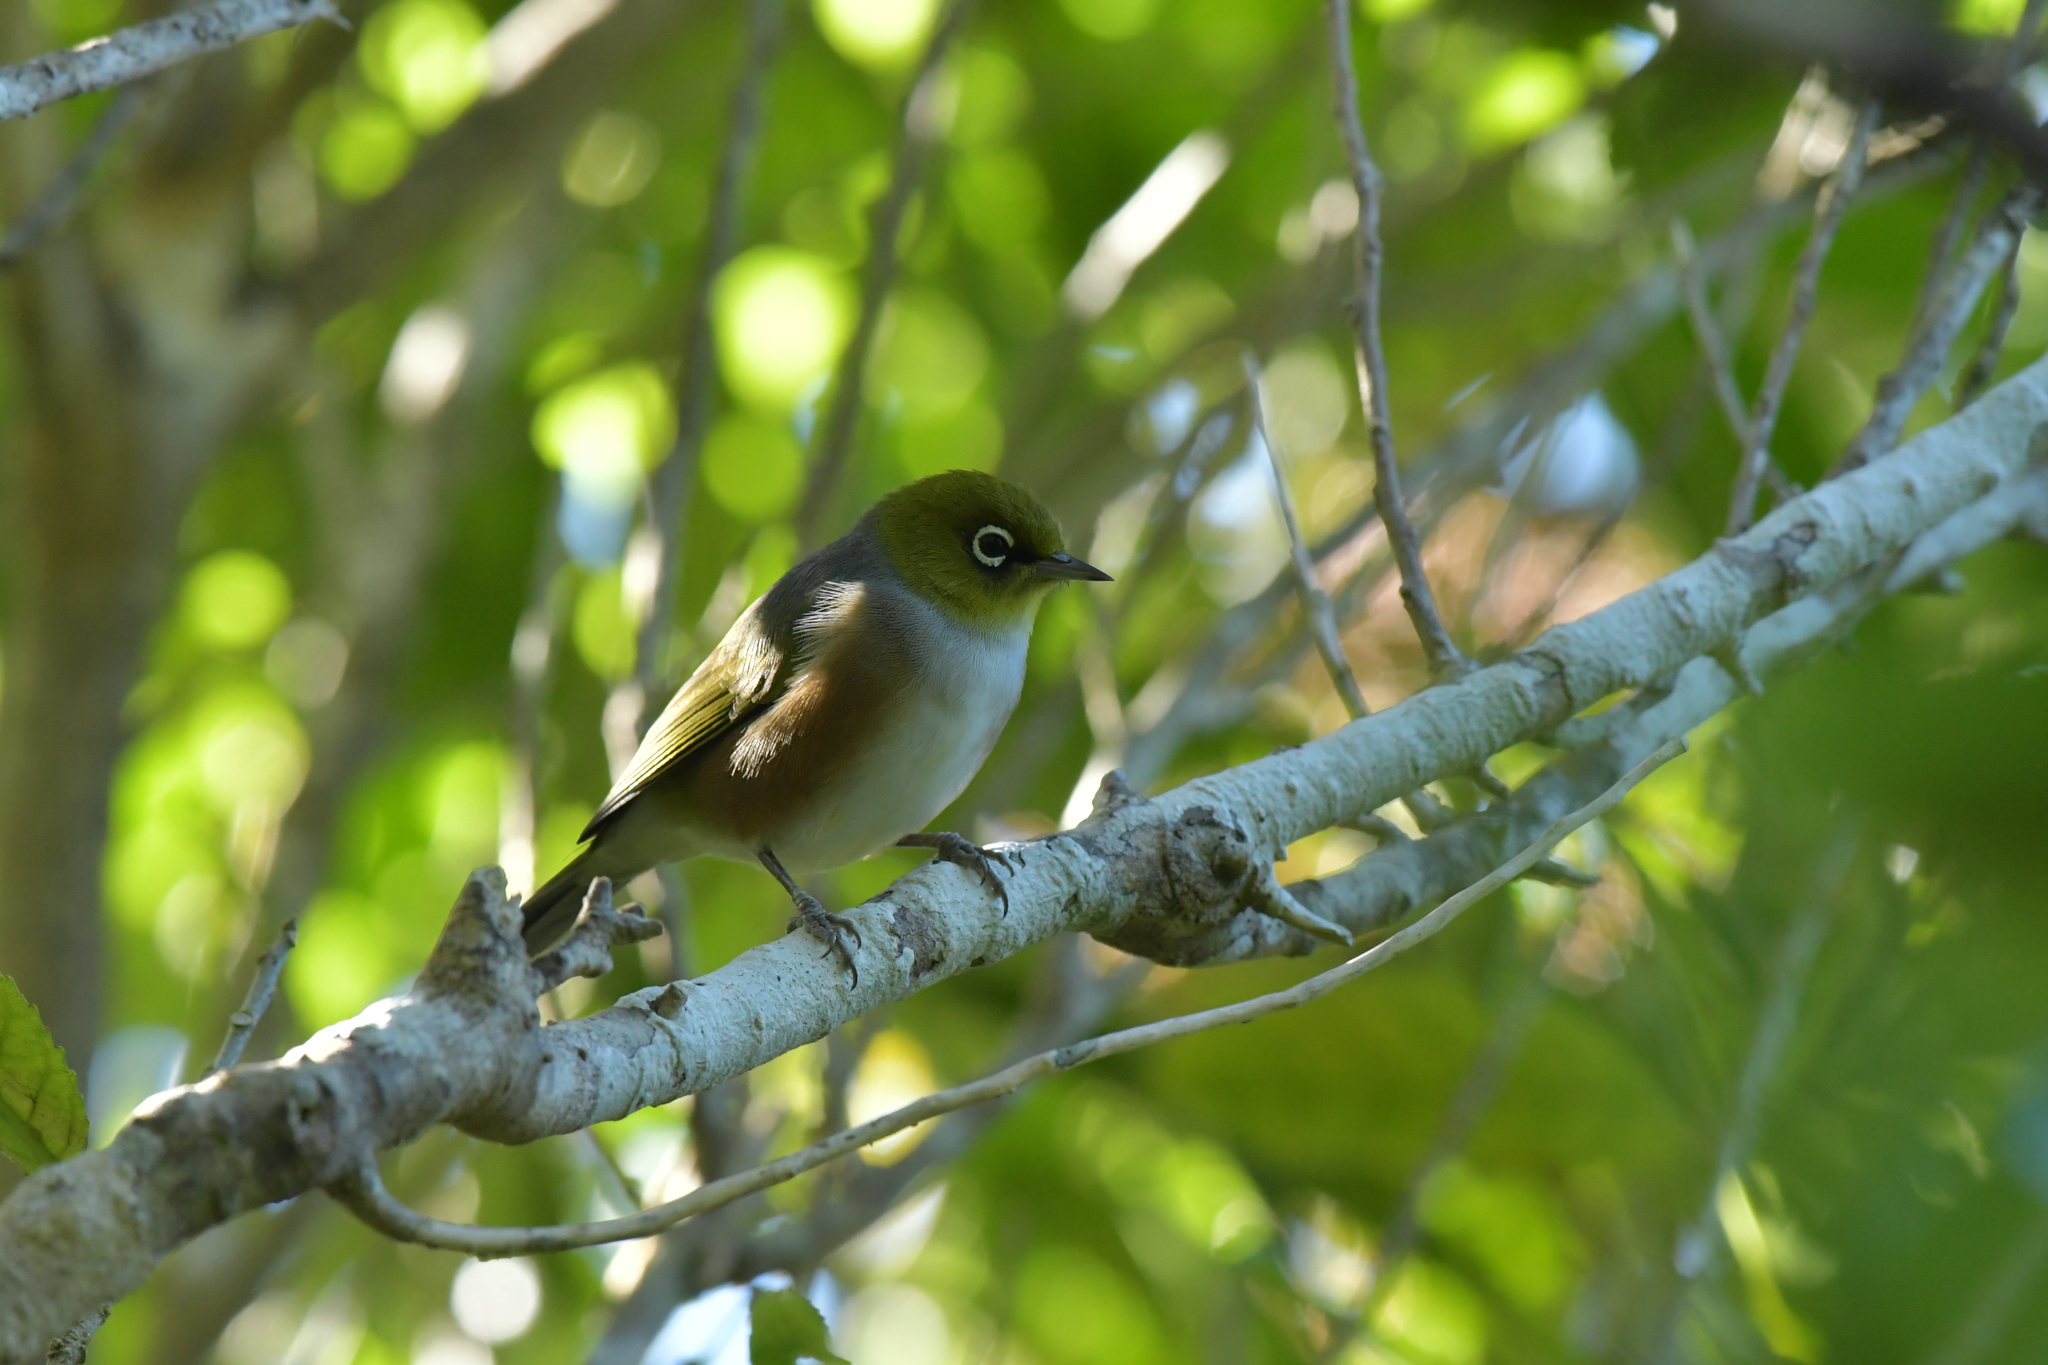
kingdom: Animalia
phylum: Chordata
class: Aves
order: Passeriformes
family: Zosteropidae
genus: Zosterops
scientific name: Zosterops lateralis
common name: Silvereye
